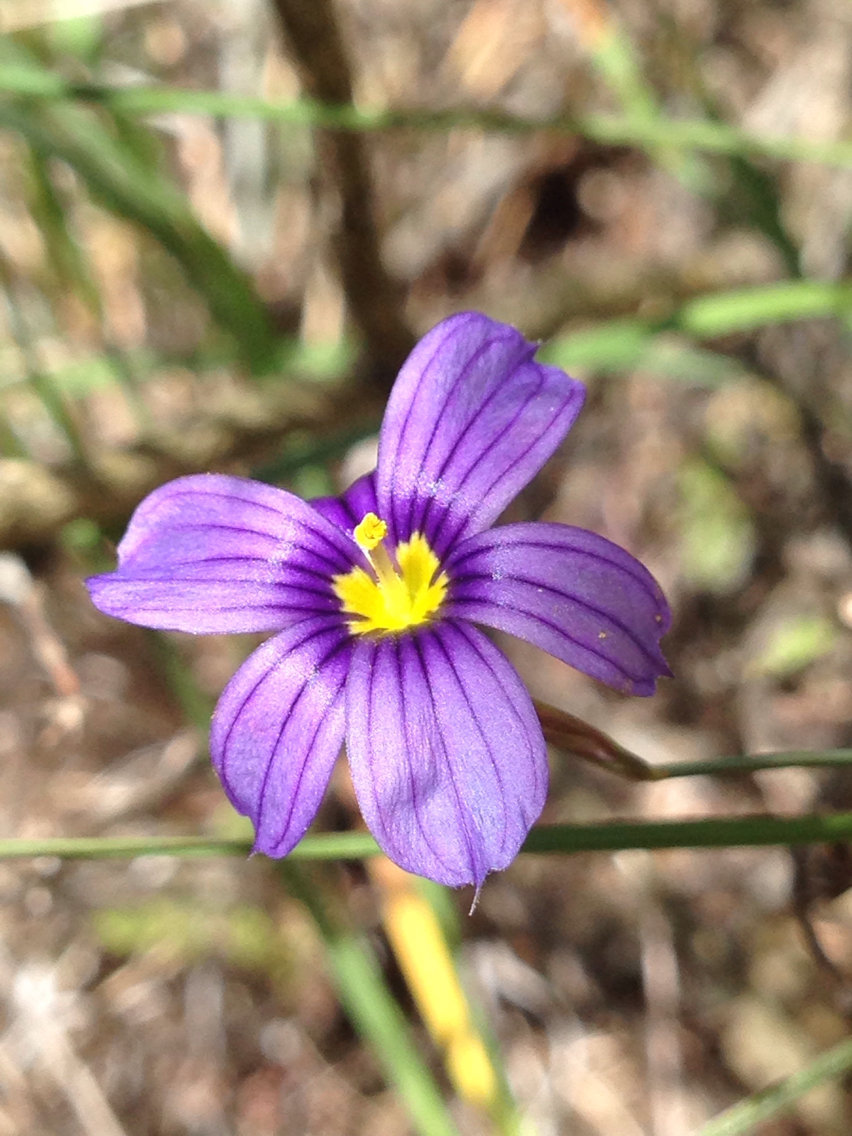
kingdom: Plantae
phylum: Tracheophyta
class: Liliopsida
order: Asparagales
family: Iridaceae
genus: Sisyrinchium
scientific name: Sisyrinchium bellum
